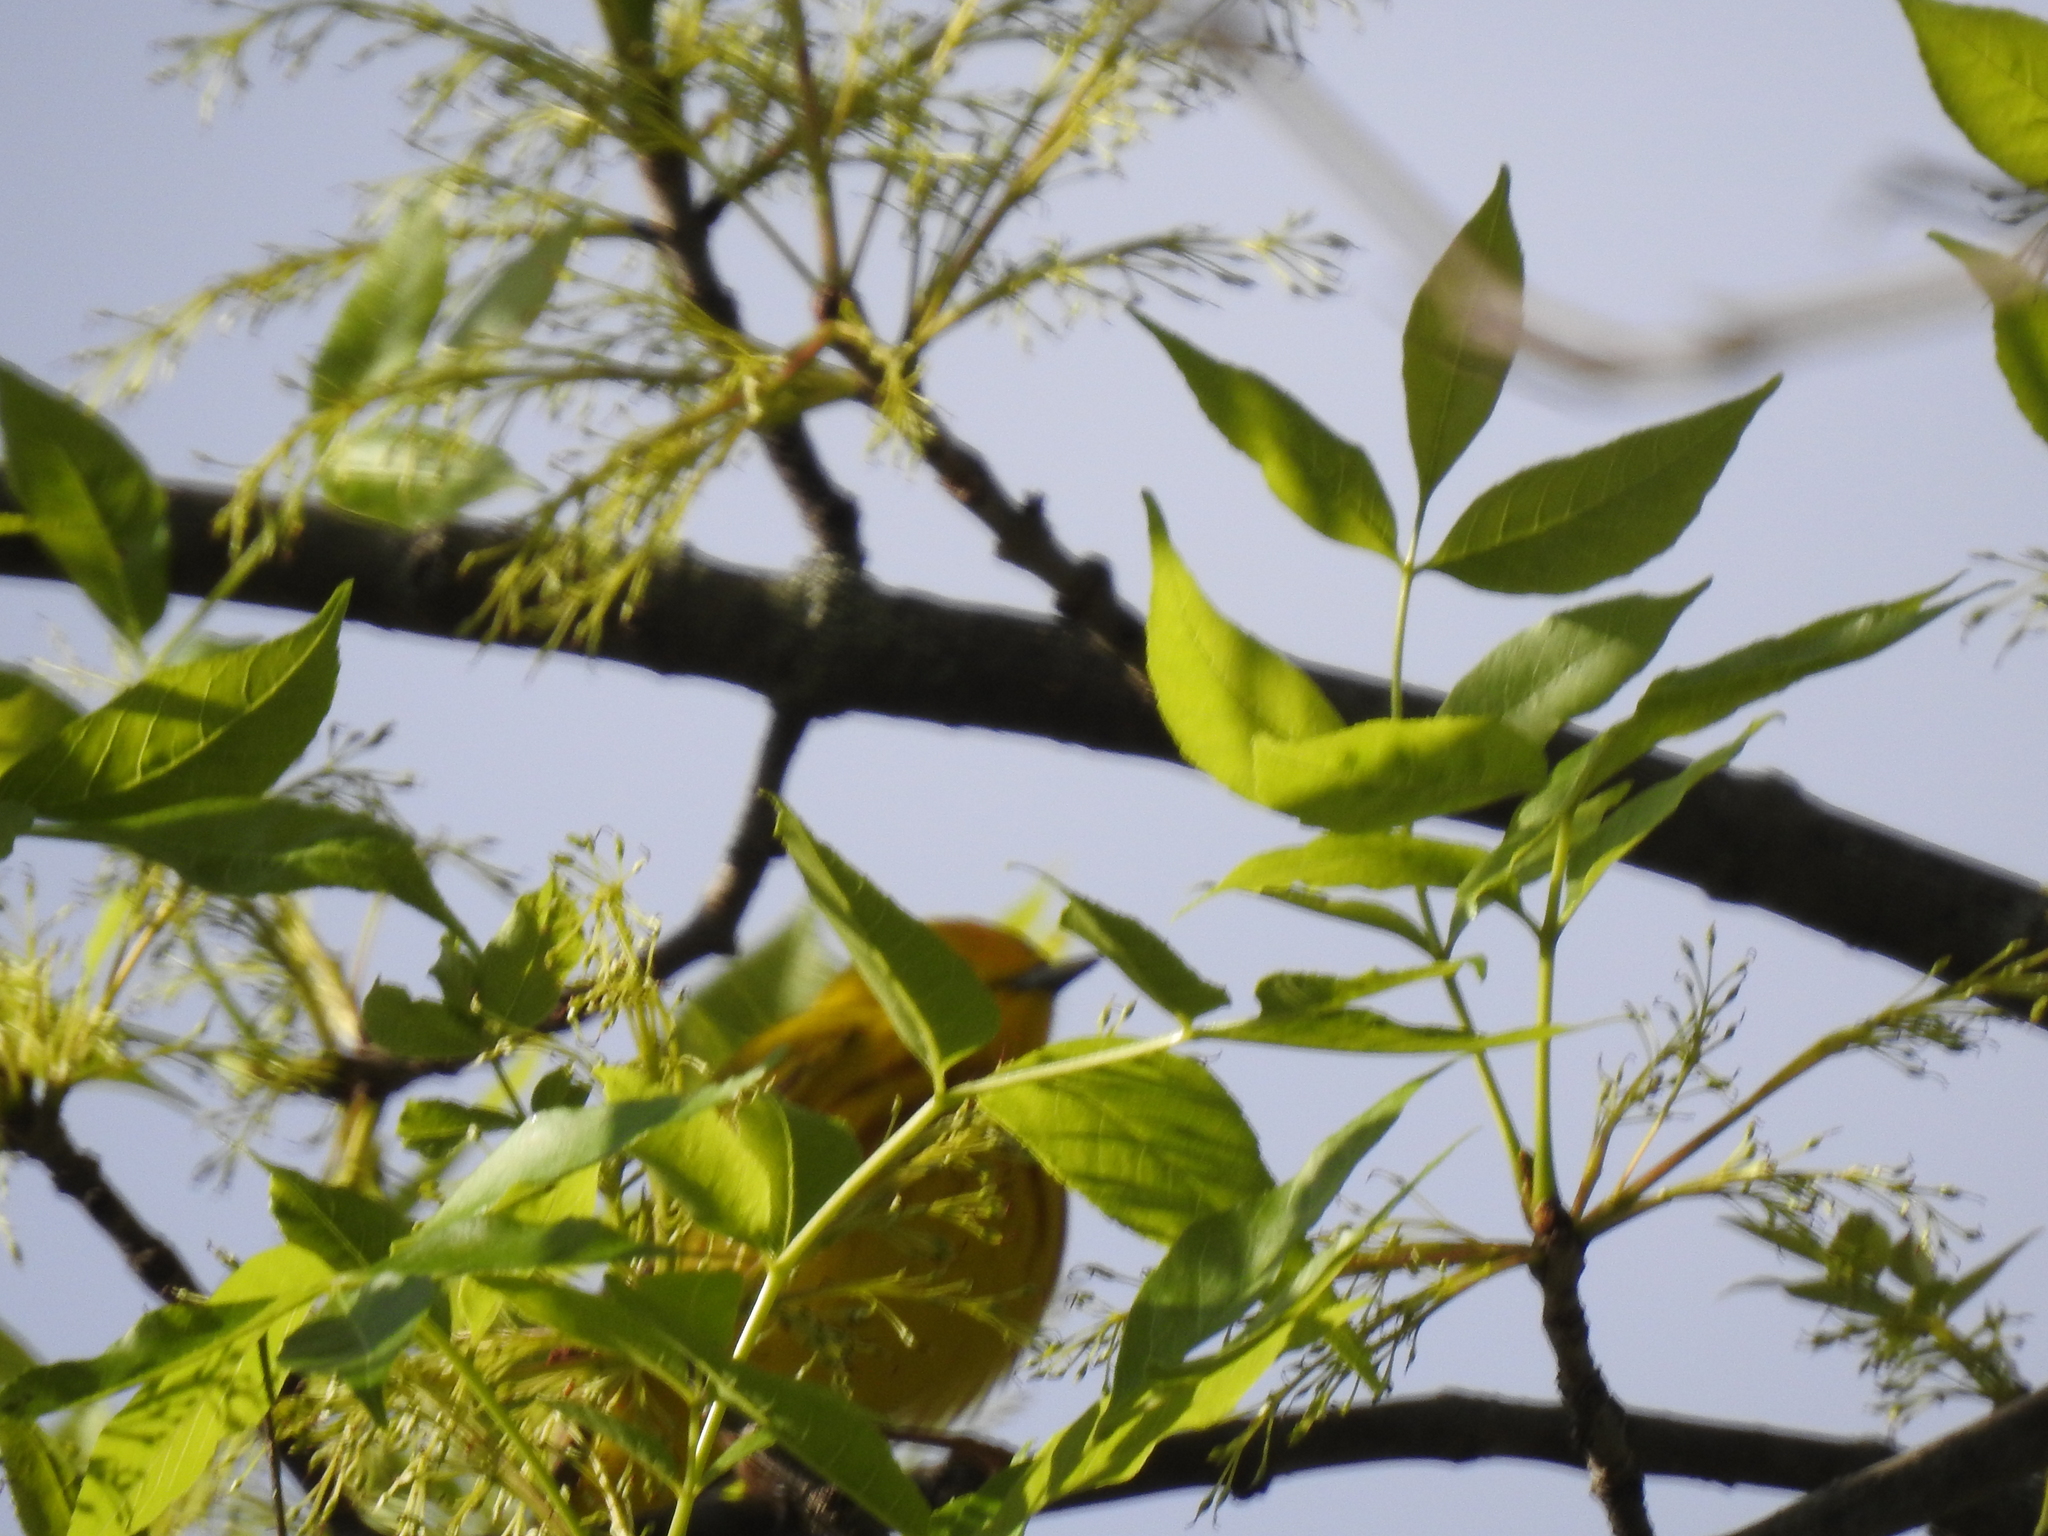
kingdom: Animalia
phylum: Chordata
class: Aves
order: Passeriformes
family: Parulidae
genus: Setophaga
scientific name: Setophaga petechia
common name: Yellow warbler
